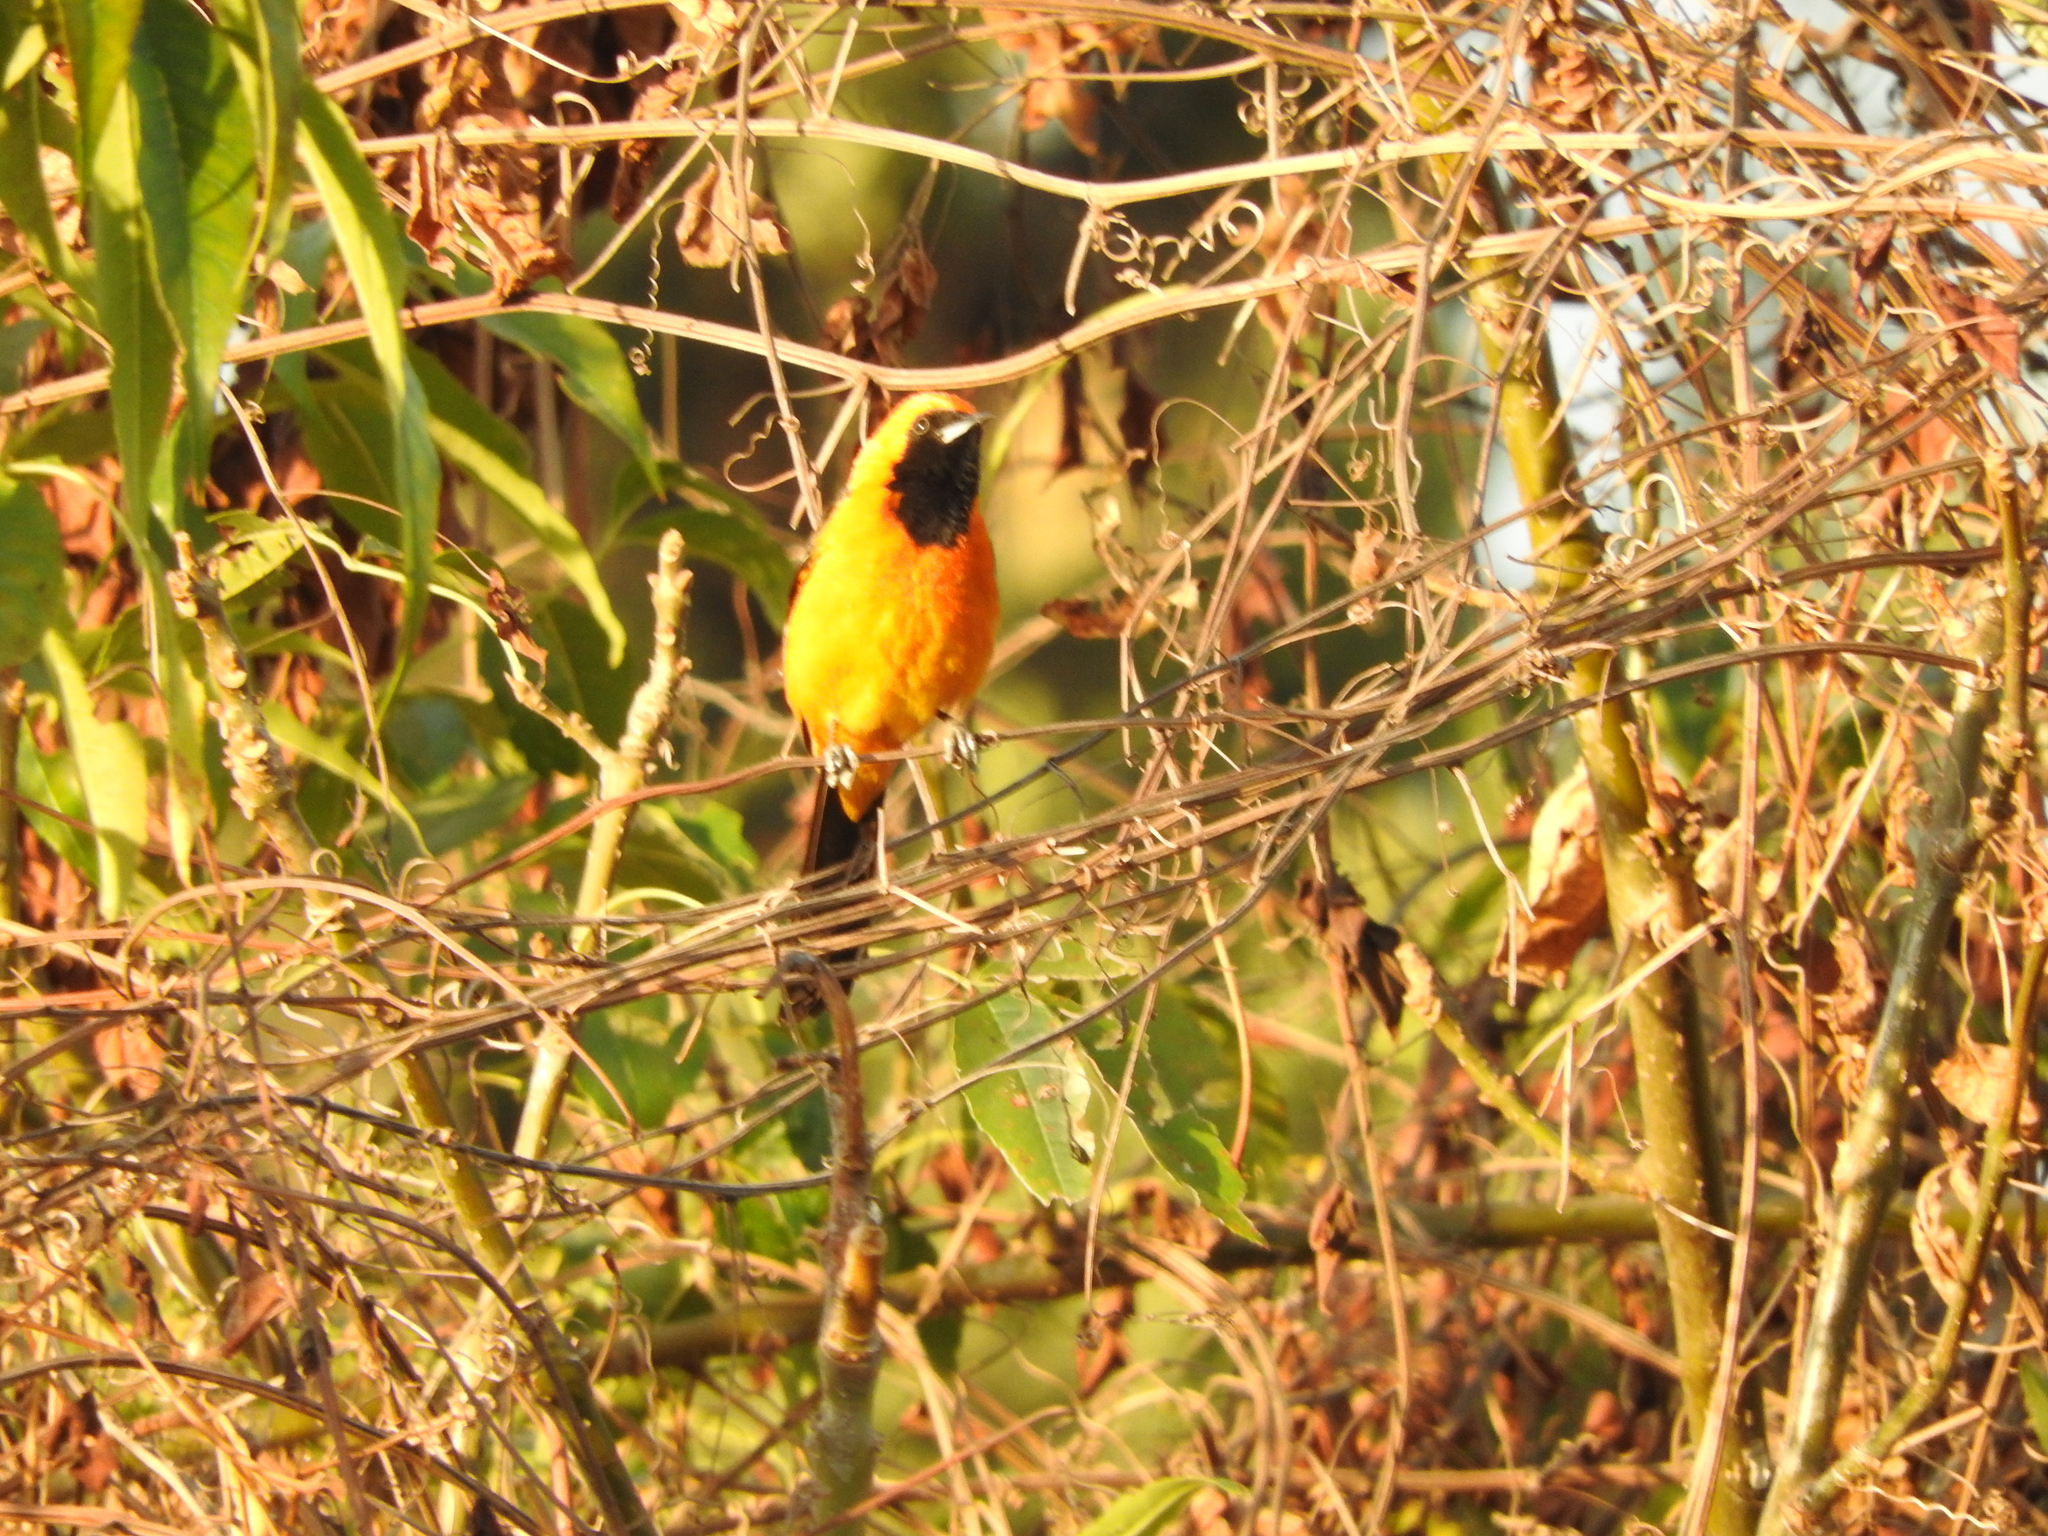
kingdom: Animalia
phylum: Chordata
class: Aves
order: Passeriformes
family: Icteridae
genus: Icterus
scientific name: Icterus cucullatus
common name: Hooded oriole
